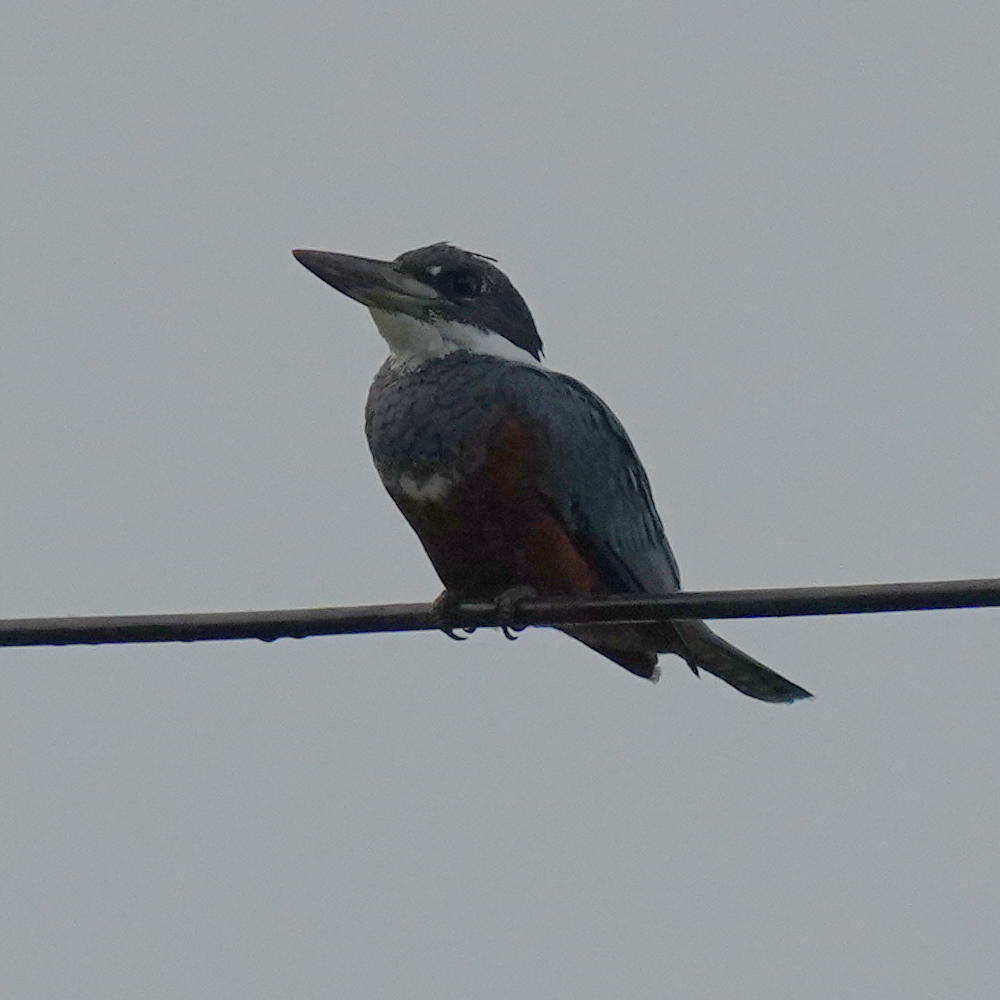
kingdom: Animalia
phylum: Chordata
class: Aves
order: Coraciiformes
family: Alcedinidae
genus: Megaceryle
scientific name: Megaceryle torquata
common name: Ringed kingfisher
